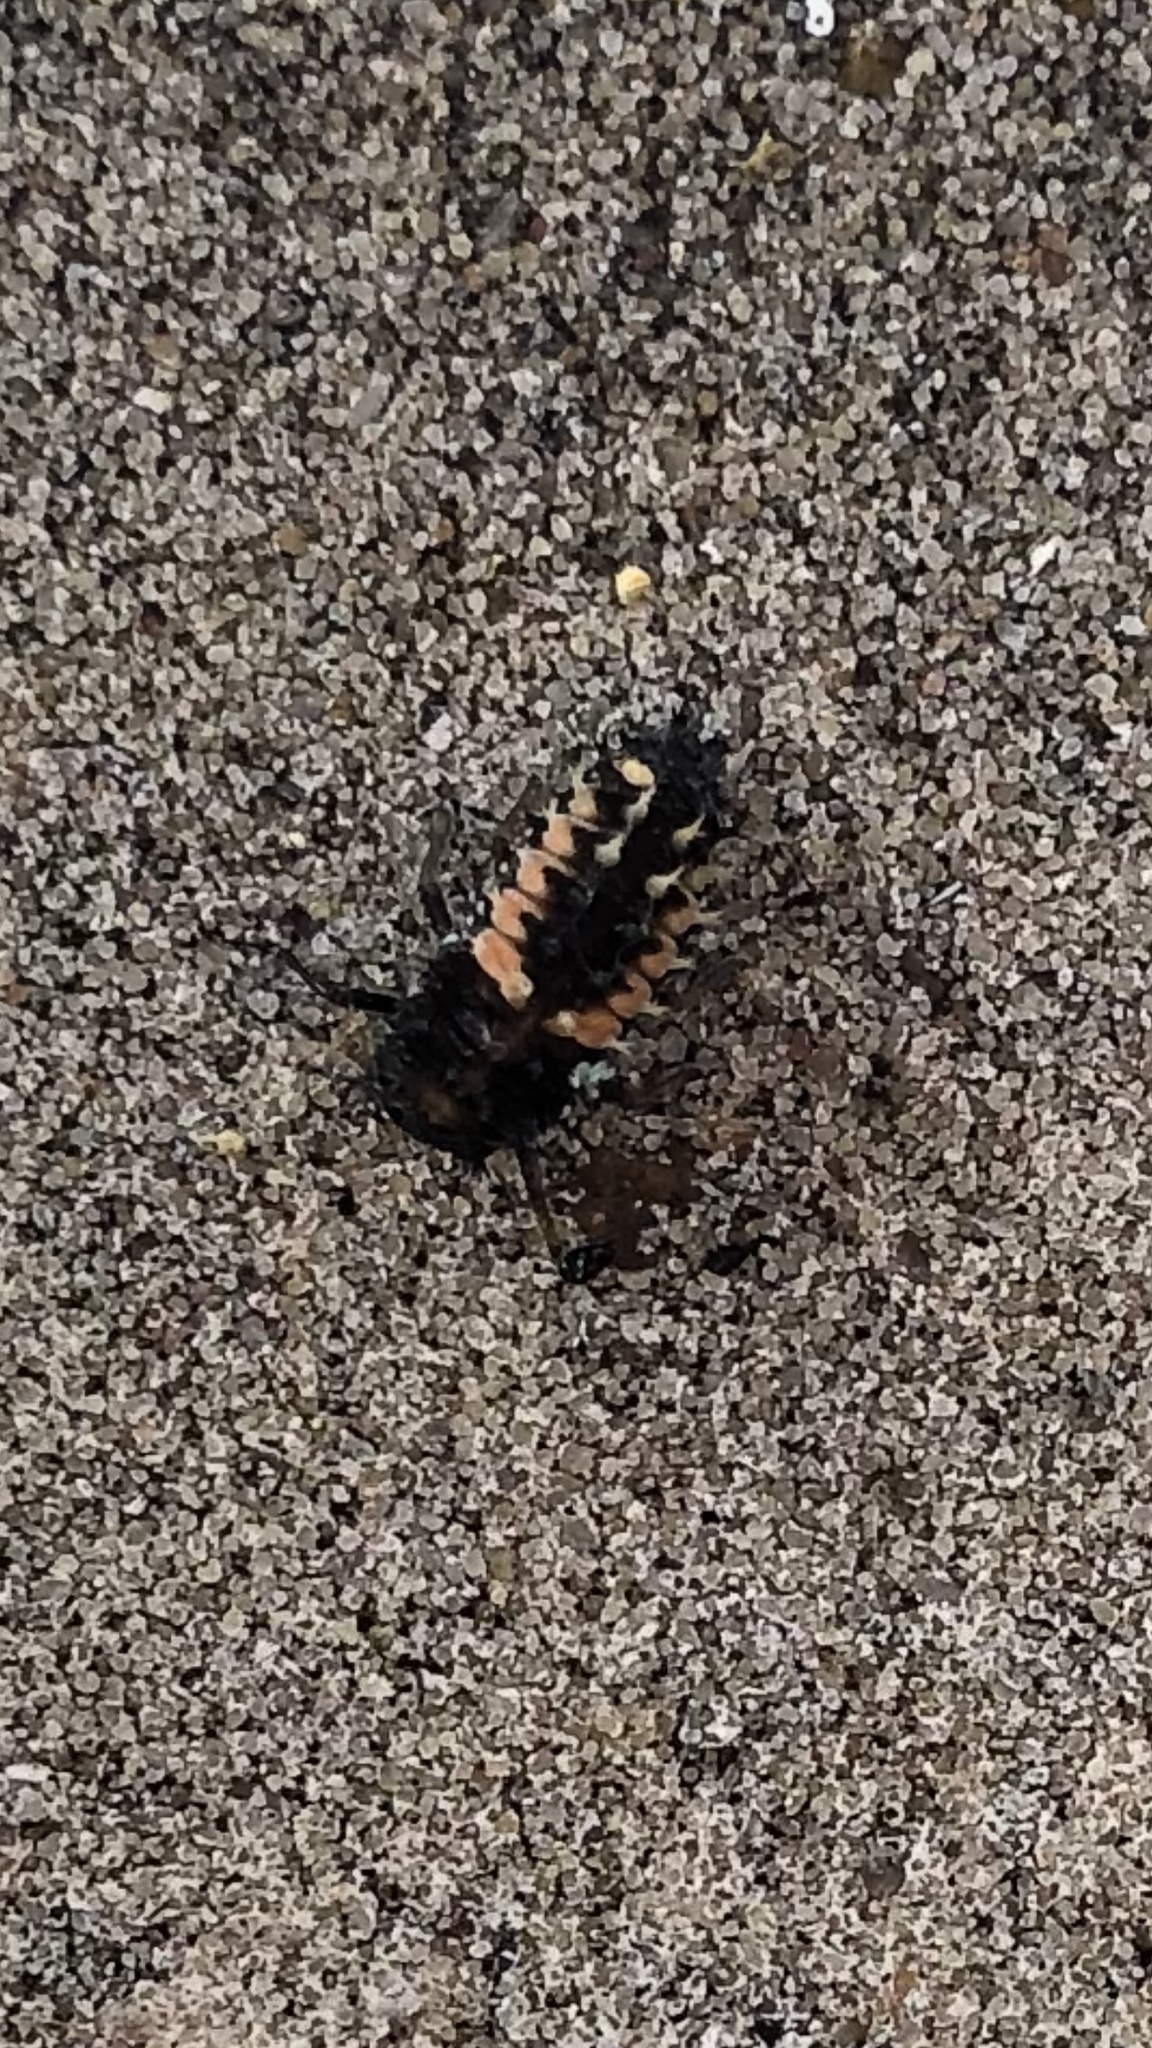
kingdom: Animalia
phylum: Arthropoda
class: Insecta
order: Coleoptera
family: Coccinellidae
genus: Harmonia
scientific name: Harmonia axyridis
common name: Harlequin ladybird
